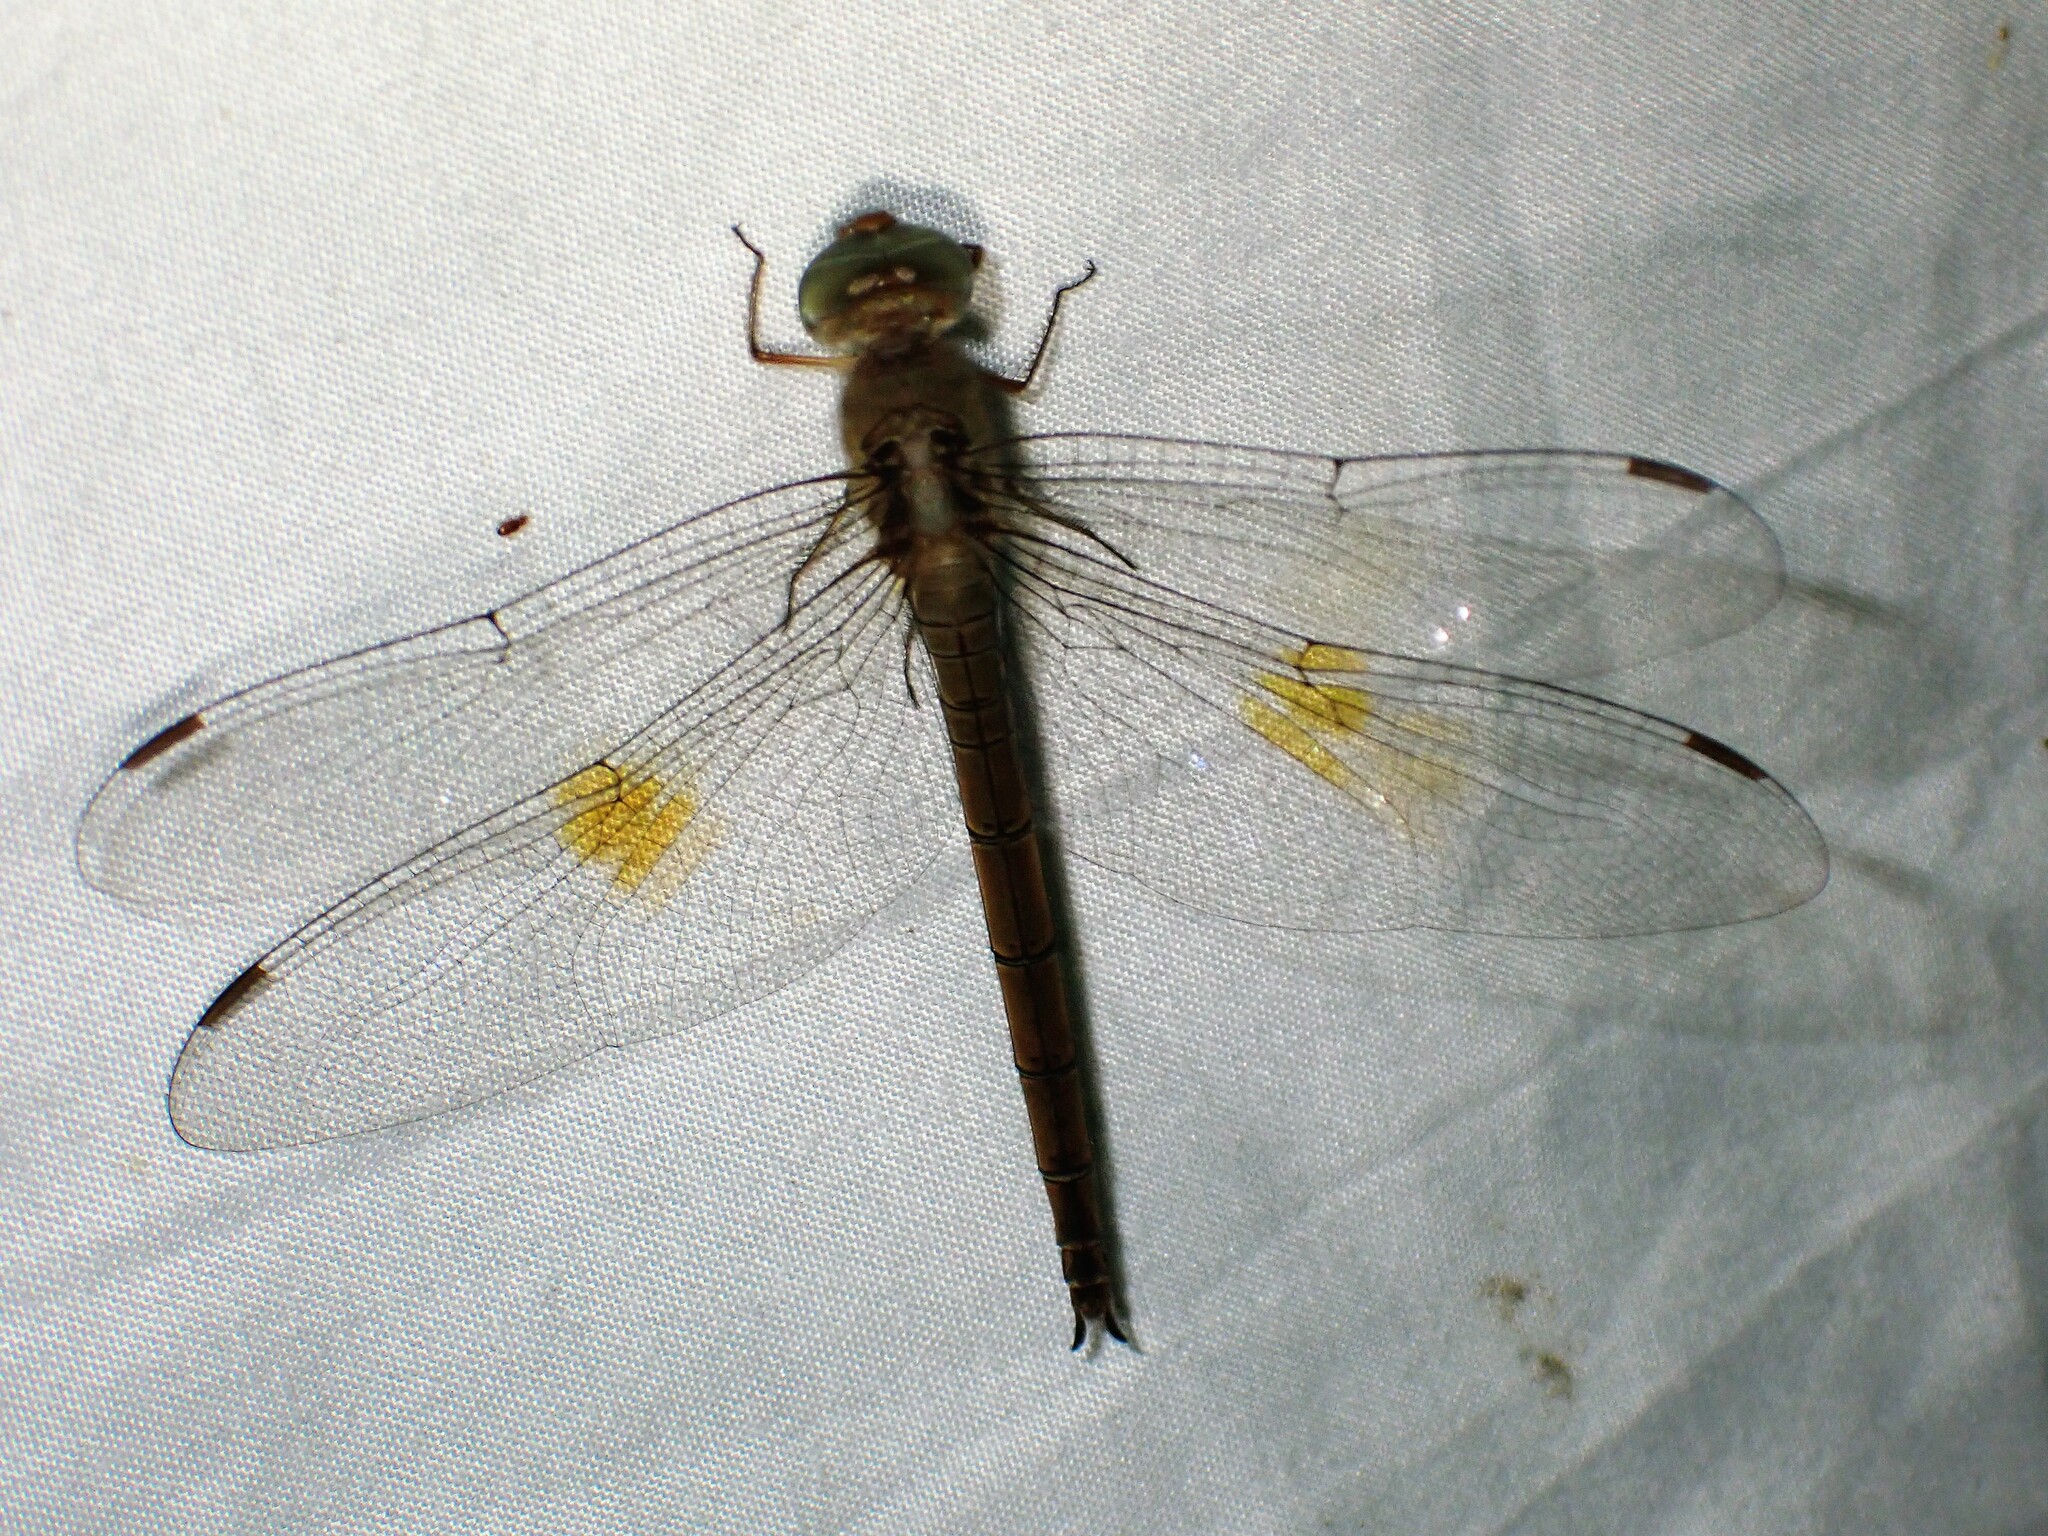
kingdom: Animalia
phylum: Arthropoda
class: Insecta
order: Odonata
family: Libellulidae
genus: Tholymis
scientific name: Tholymis citrina
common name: Evening skimmer
